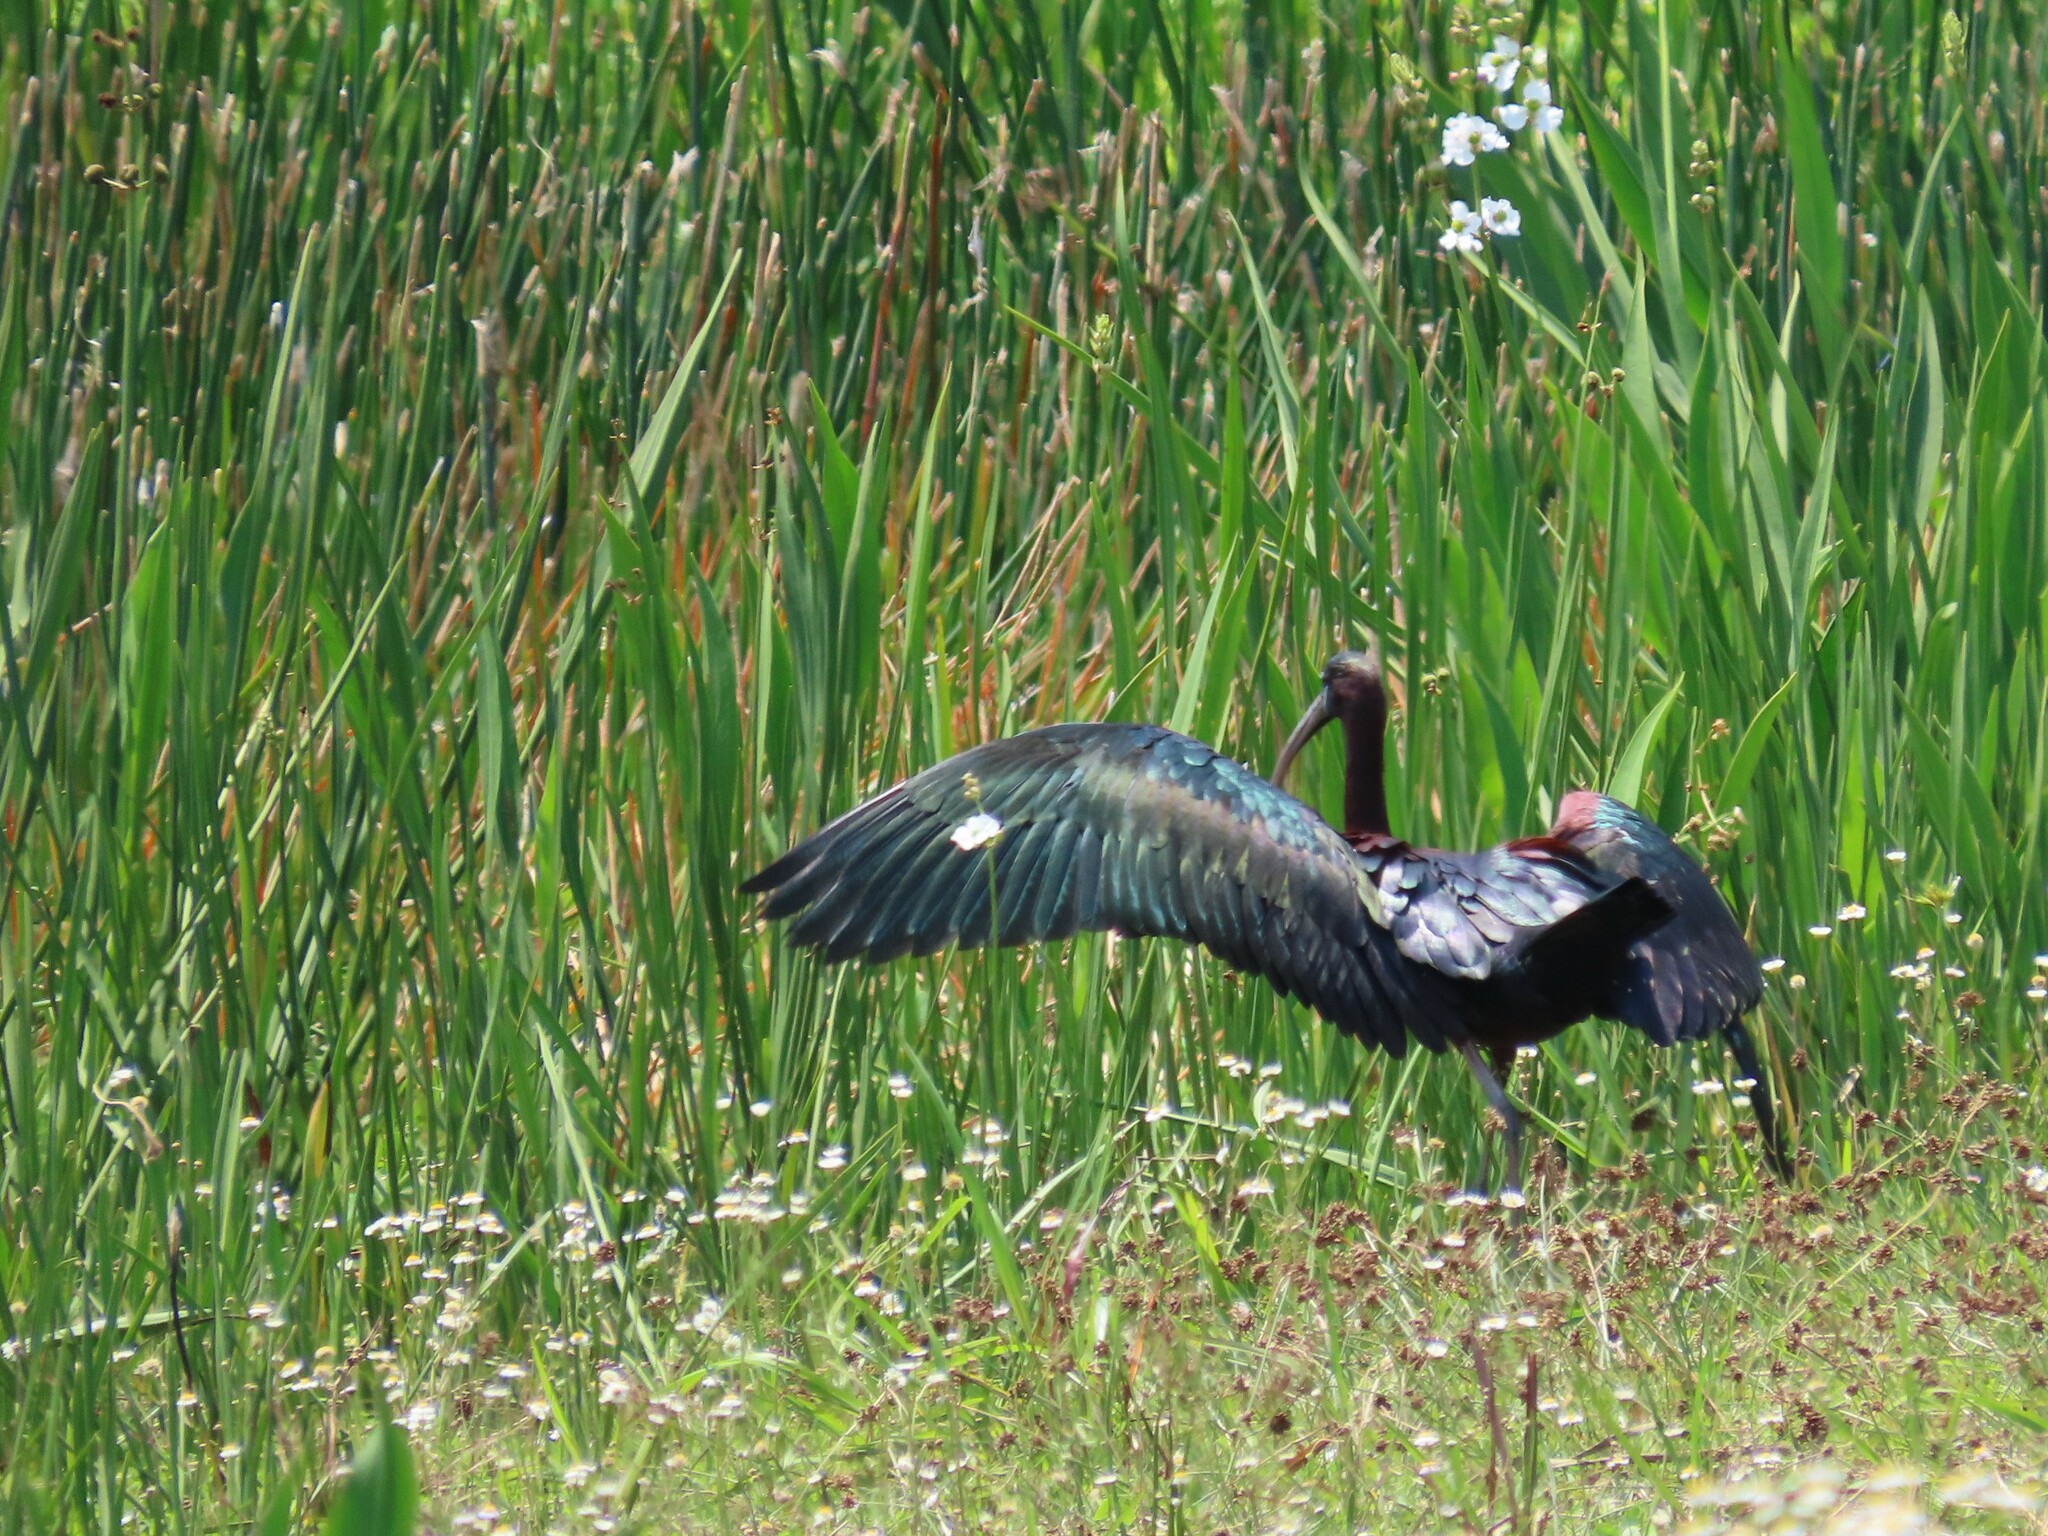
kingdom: Animalia
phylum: Chordata
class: Aves
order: Pelecaniformes
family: Threskiornithidae
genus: Plegadis
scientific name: Plegadis falcinellus
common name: Glossy ibis
